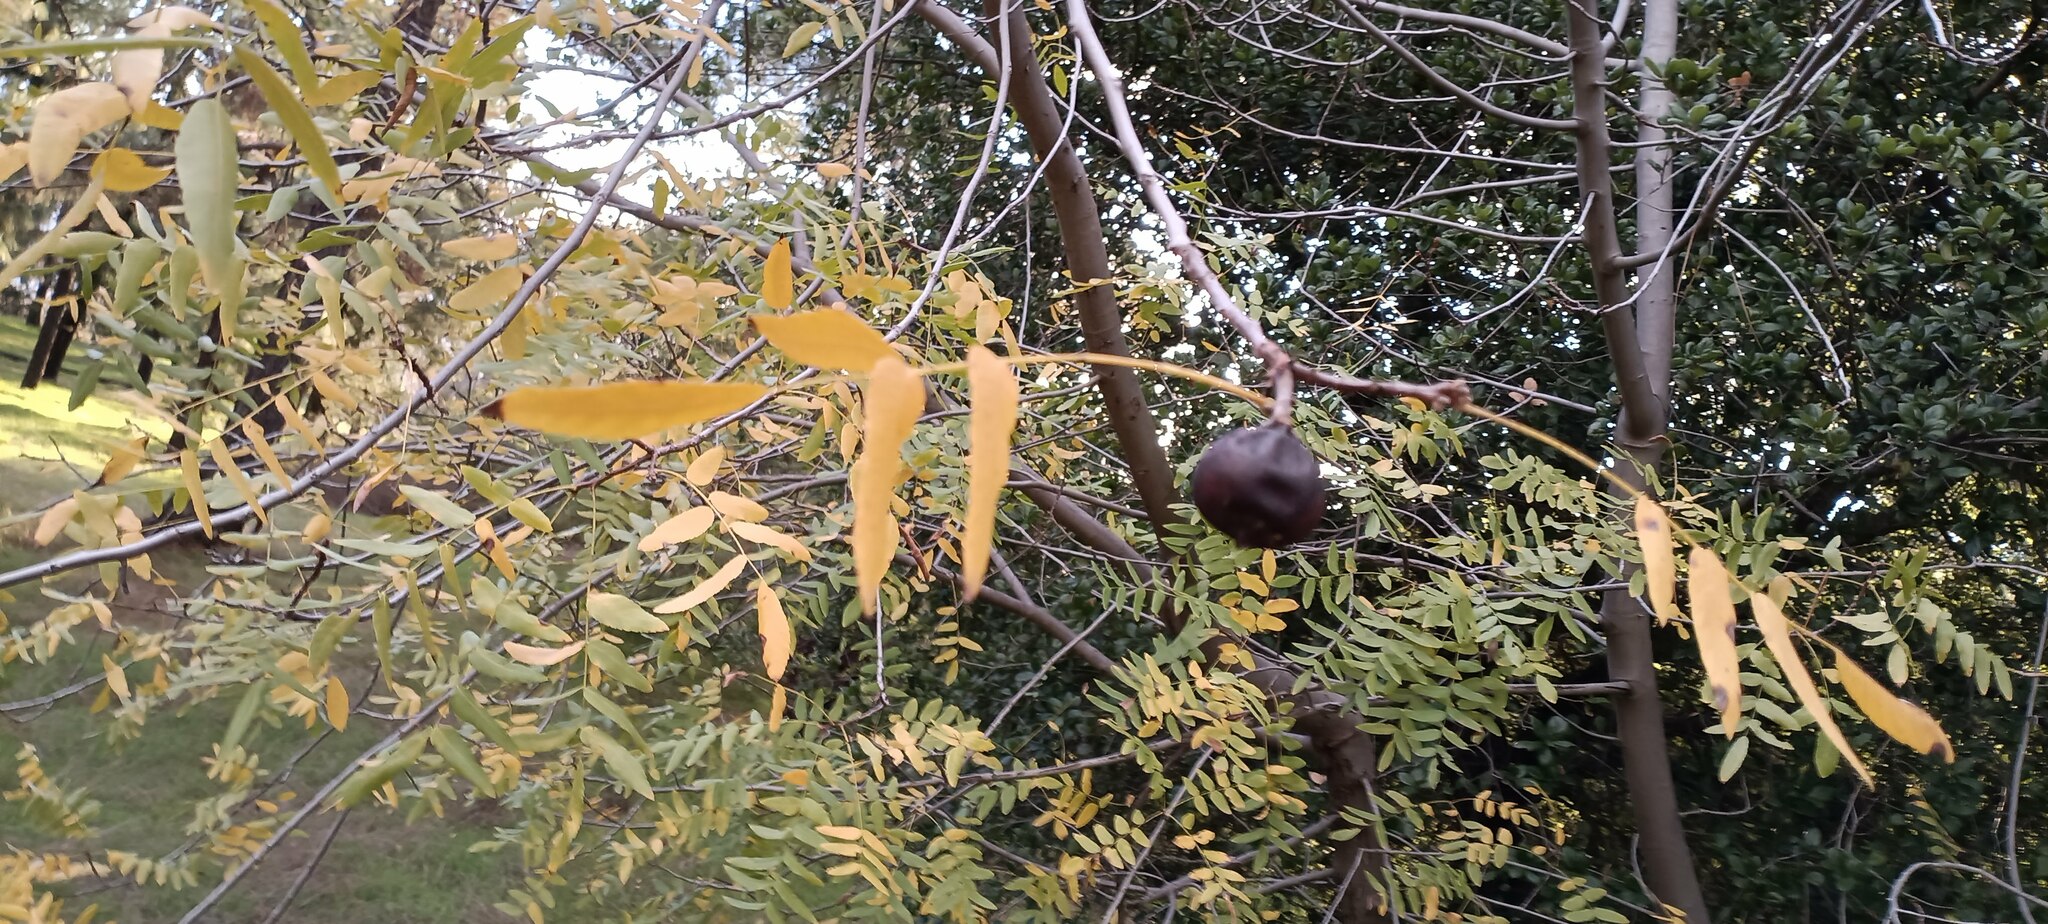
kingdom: Plantae
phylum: Tracheophyta
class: Magnoliopsida
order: Fagales
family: Juglandaceae
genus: Juglans
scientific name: Juglans californica
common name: Southern california black walnut
